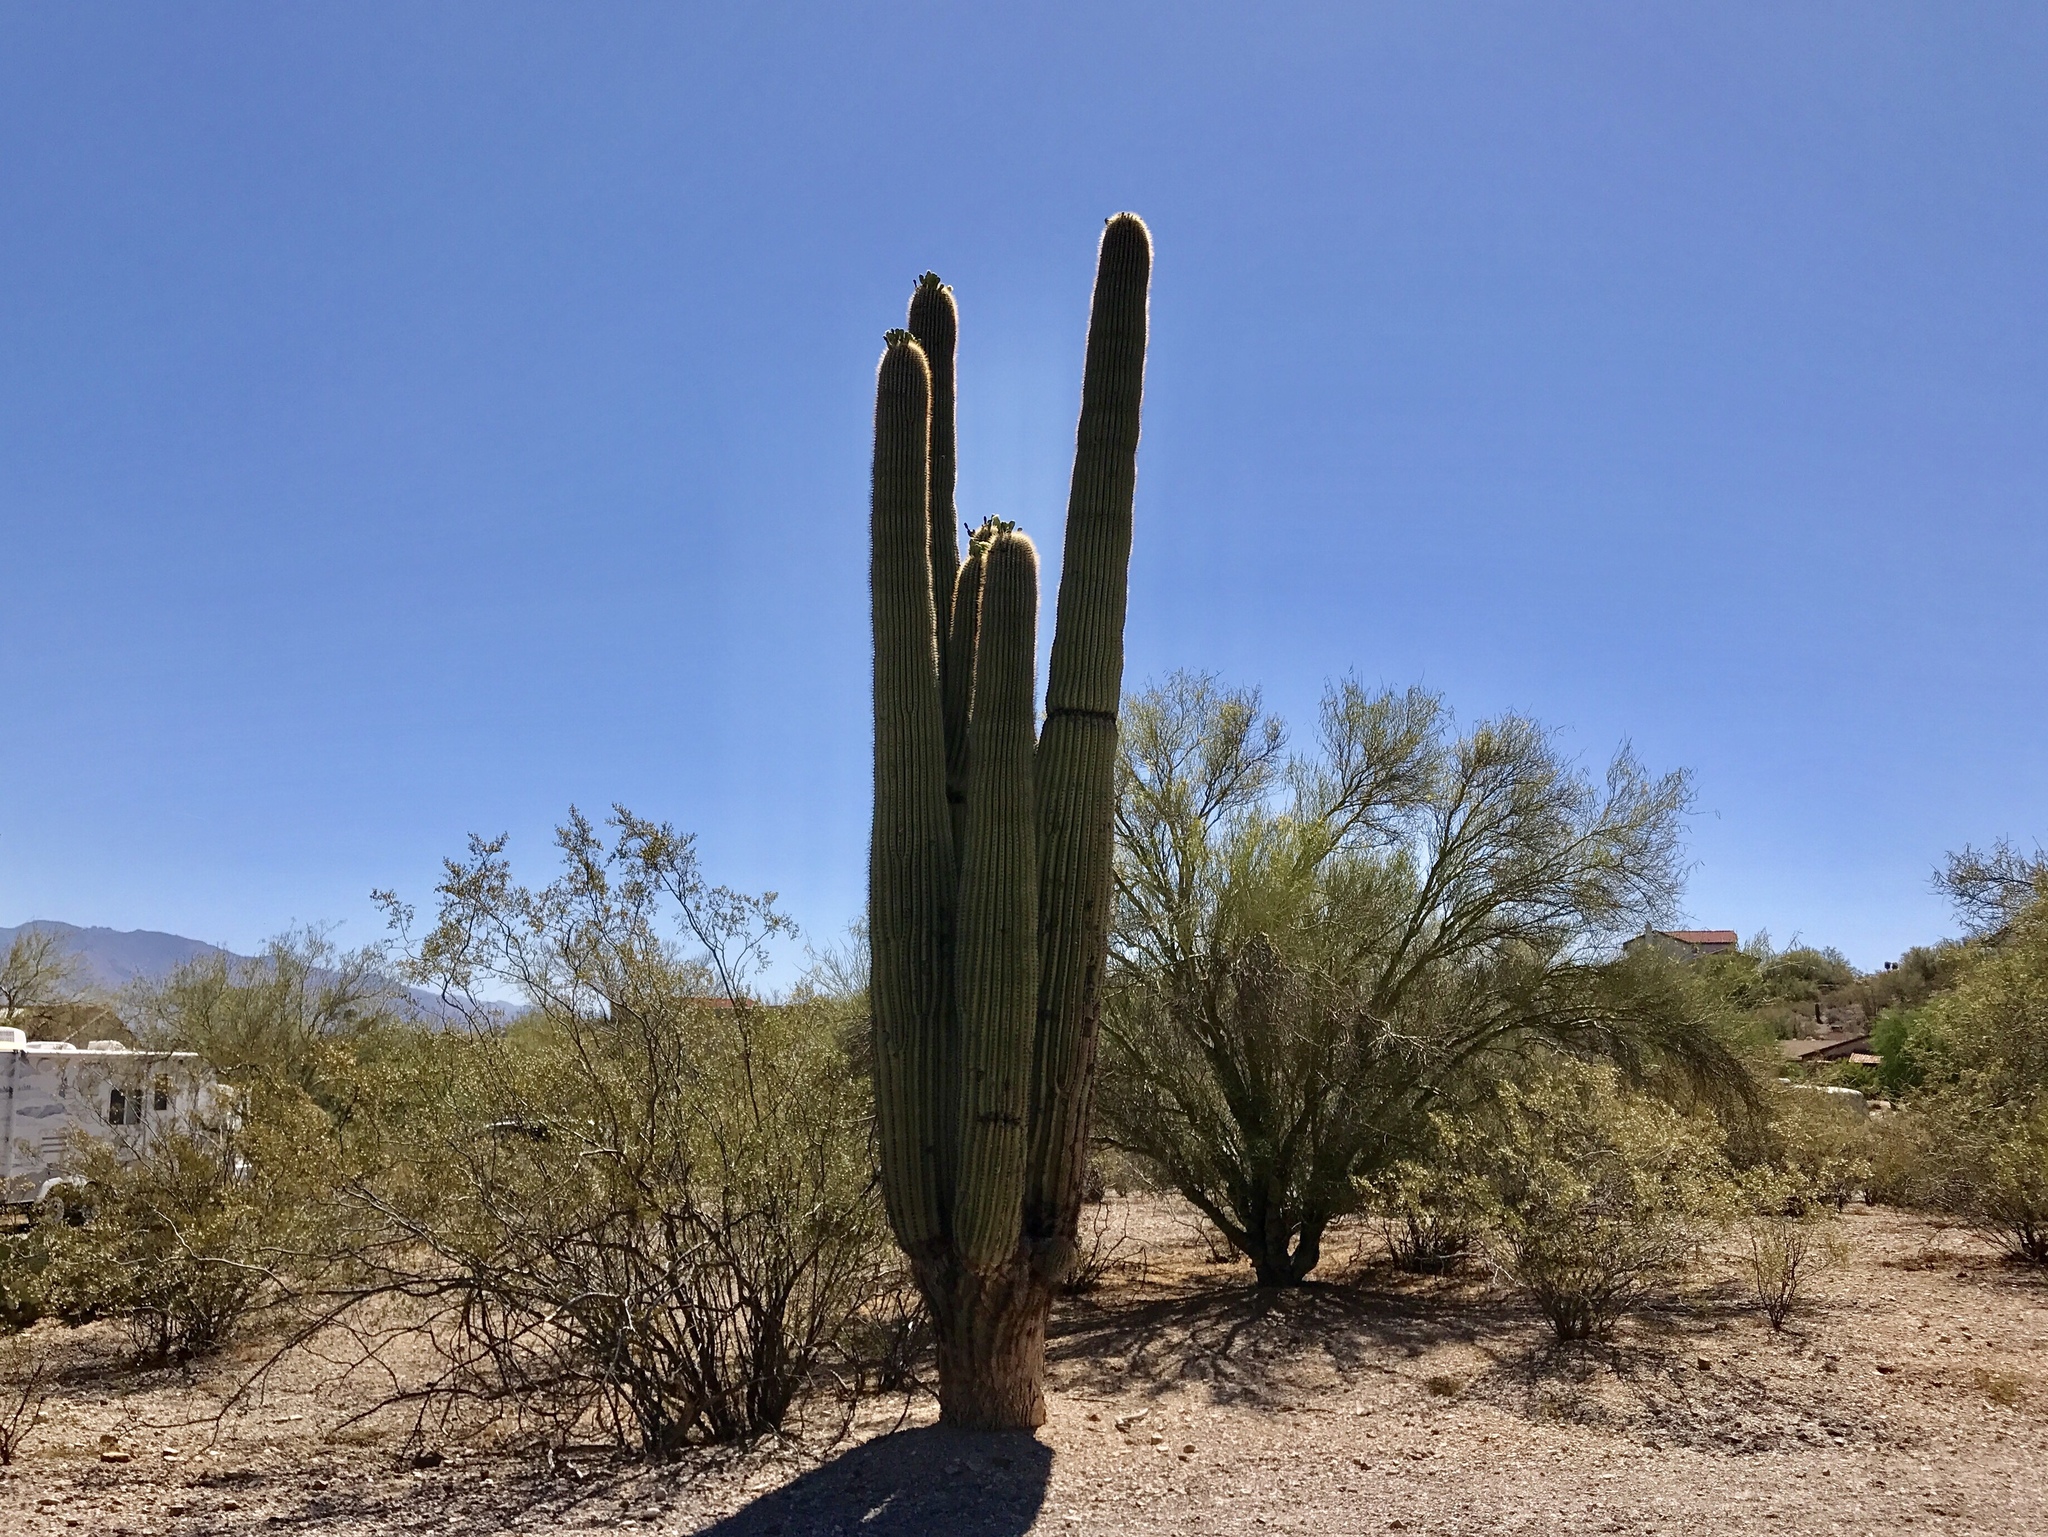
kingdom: Plantae
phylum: Tracheophyta
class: Magnoliopsida
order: Caryophyllales
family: Cactaceae
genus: Carnegiea
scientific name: Carnegiea gigantea
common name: Saguaro
